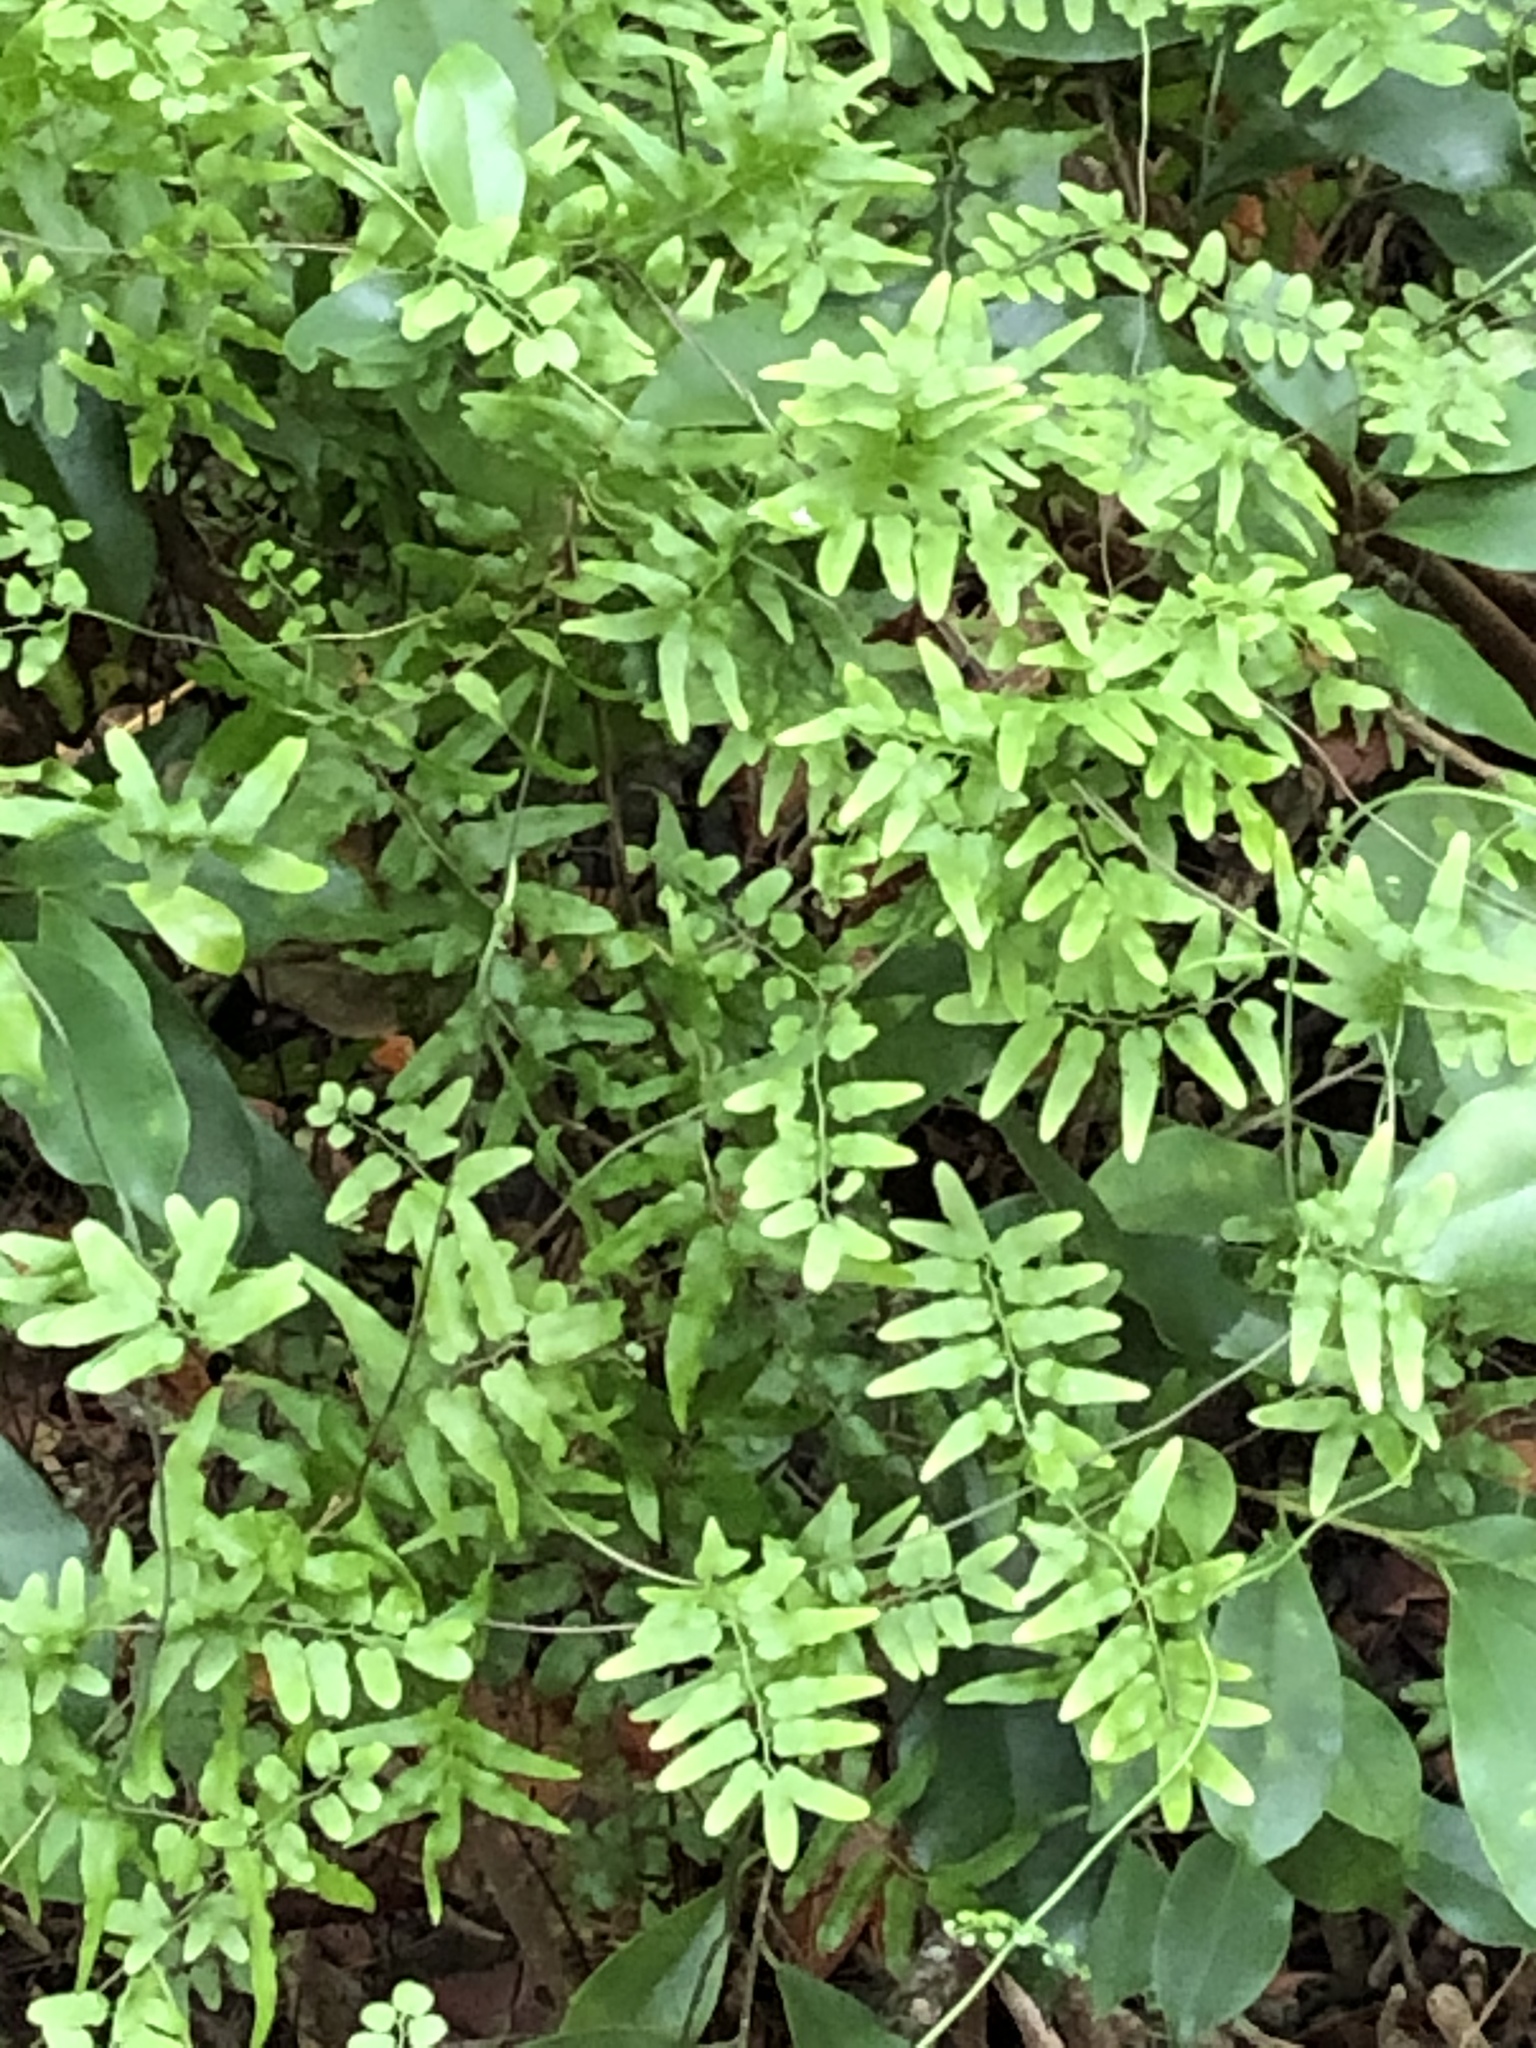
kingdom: Plantae
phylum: Tracheophyta
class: Polypodiopsida
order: Schizaeales
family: Lygodiaceae
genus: Lygodium
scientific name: Lygodium microphyllum
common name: Small-leaf climbing fern
